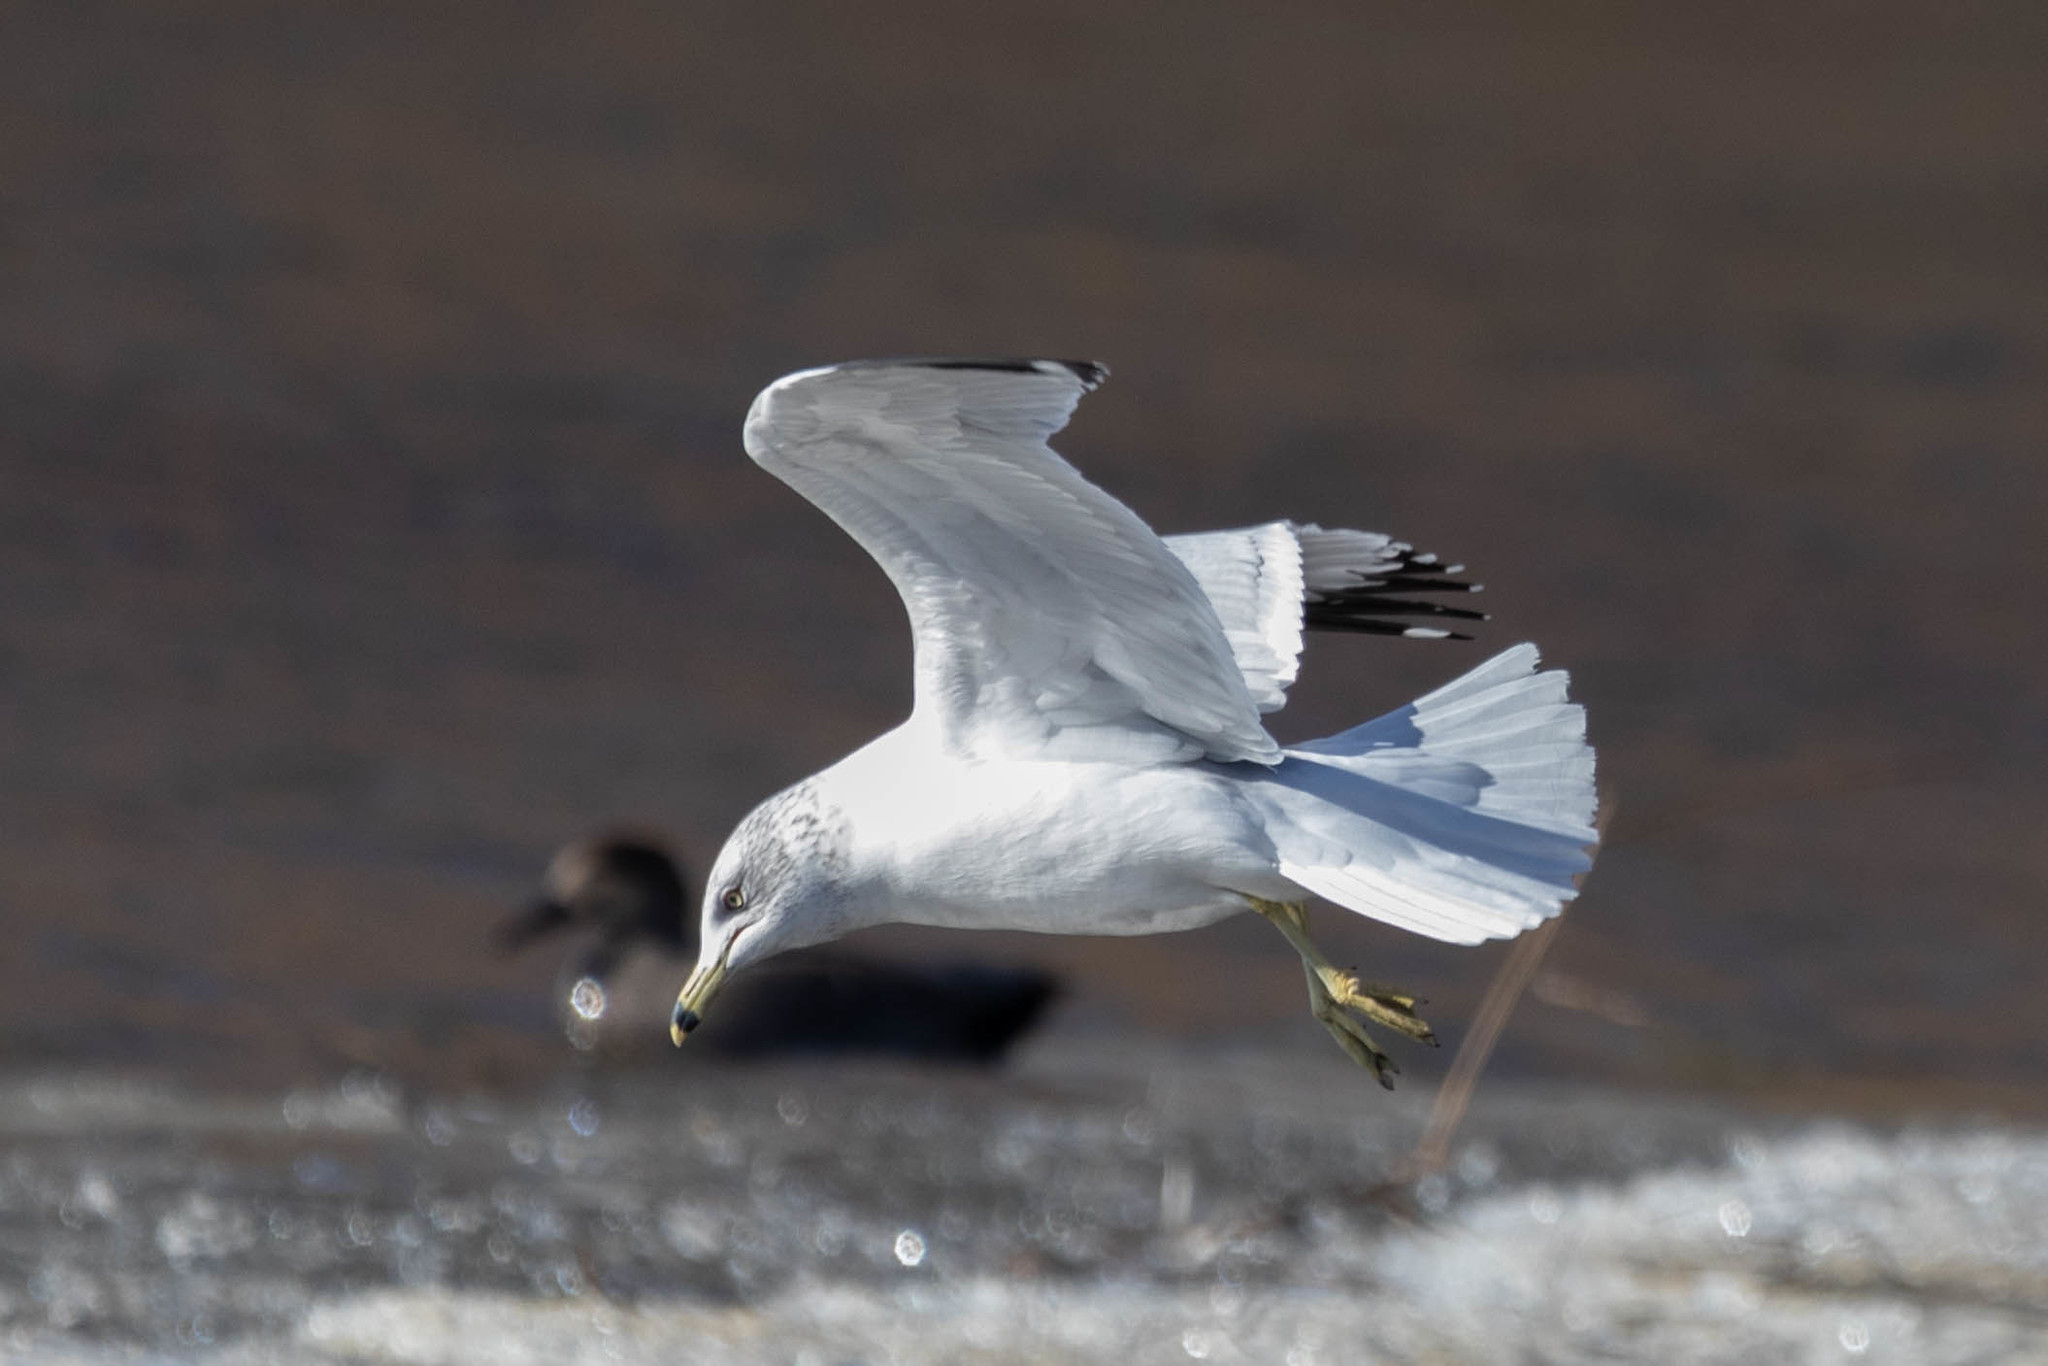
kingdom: Animalia
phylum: Chordata
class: Aves
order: Charadriiformes
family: Laridae
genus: Larus
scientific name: Larus delawarensis
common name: Ring-billed gull
